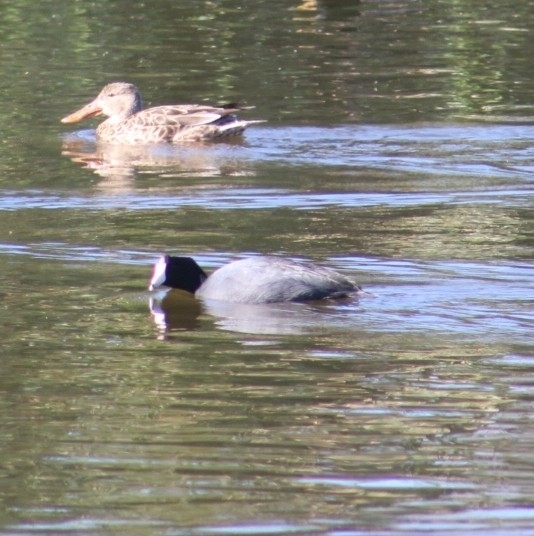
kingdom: Animalia
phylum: Chordata
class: Aves
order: Gruiformes
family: Rallidae
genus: Fulica
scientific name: Fulica americana
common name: American coot
